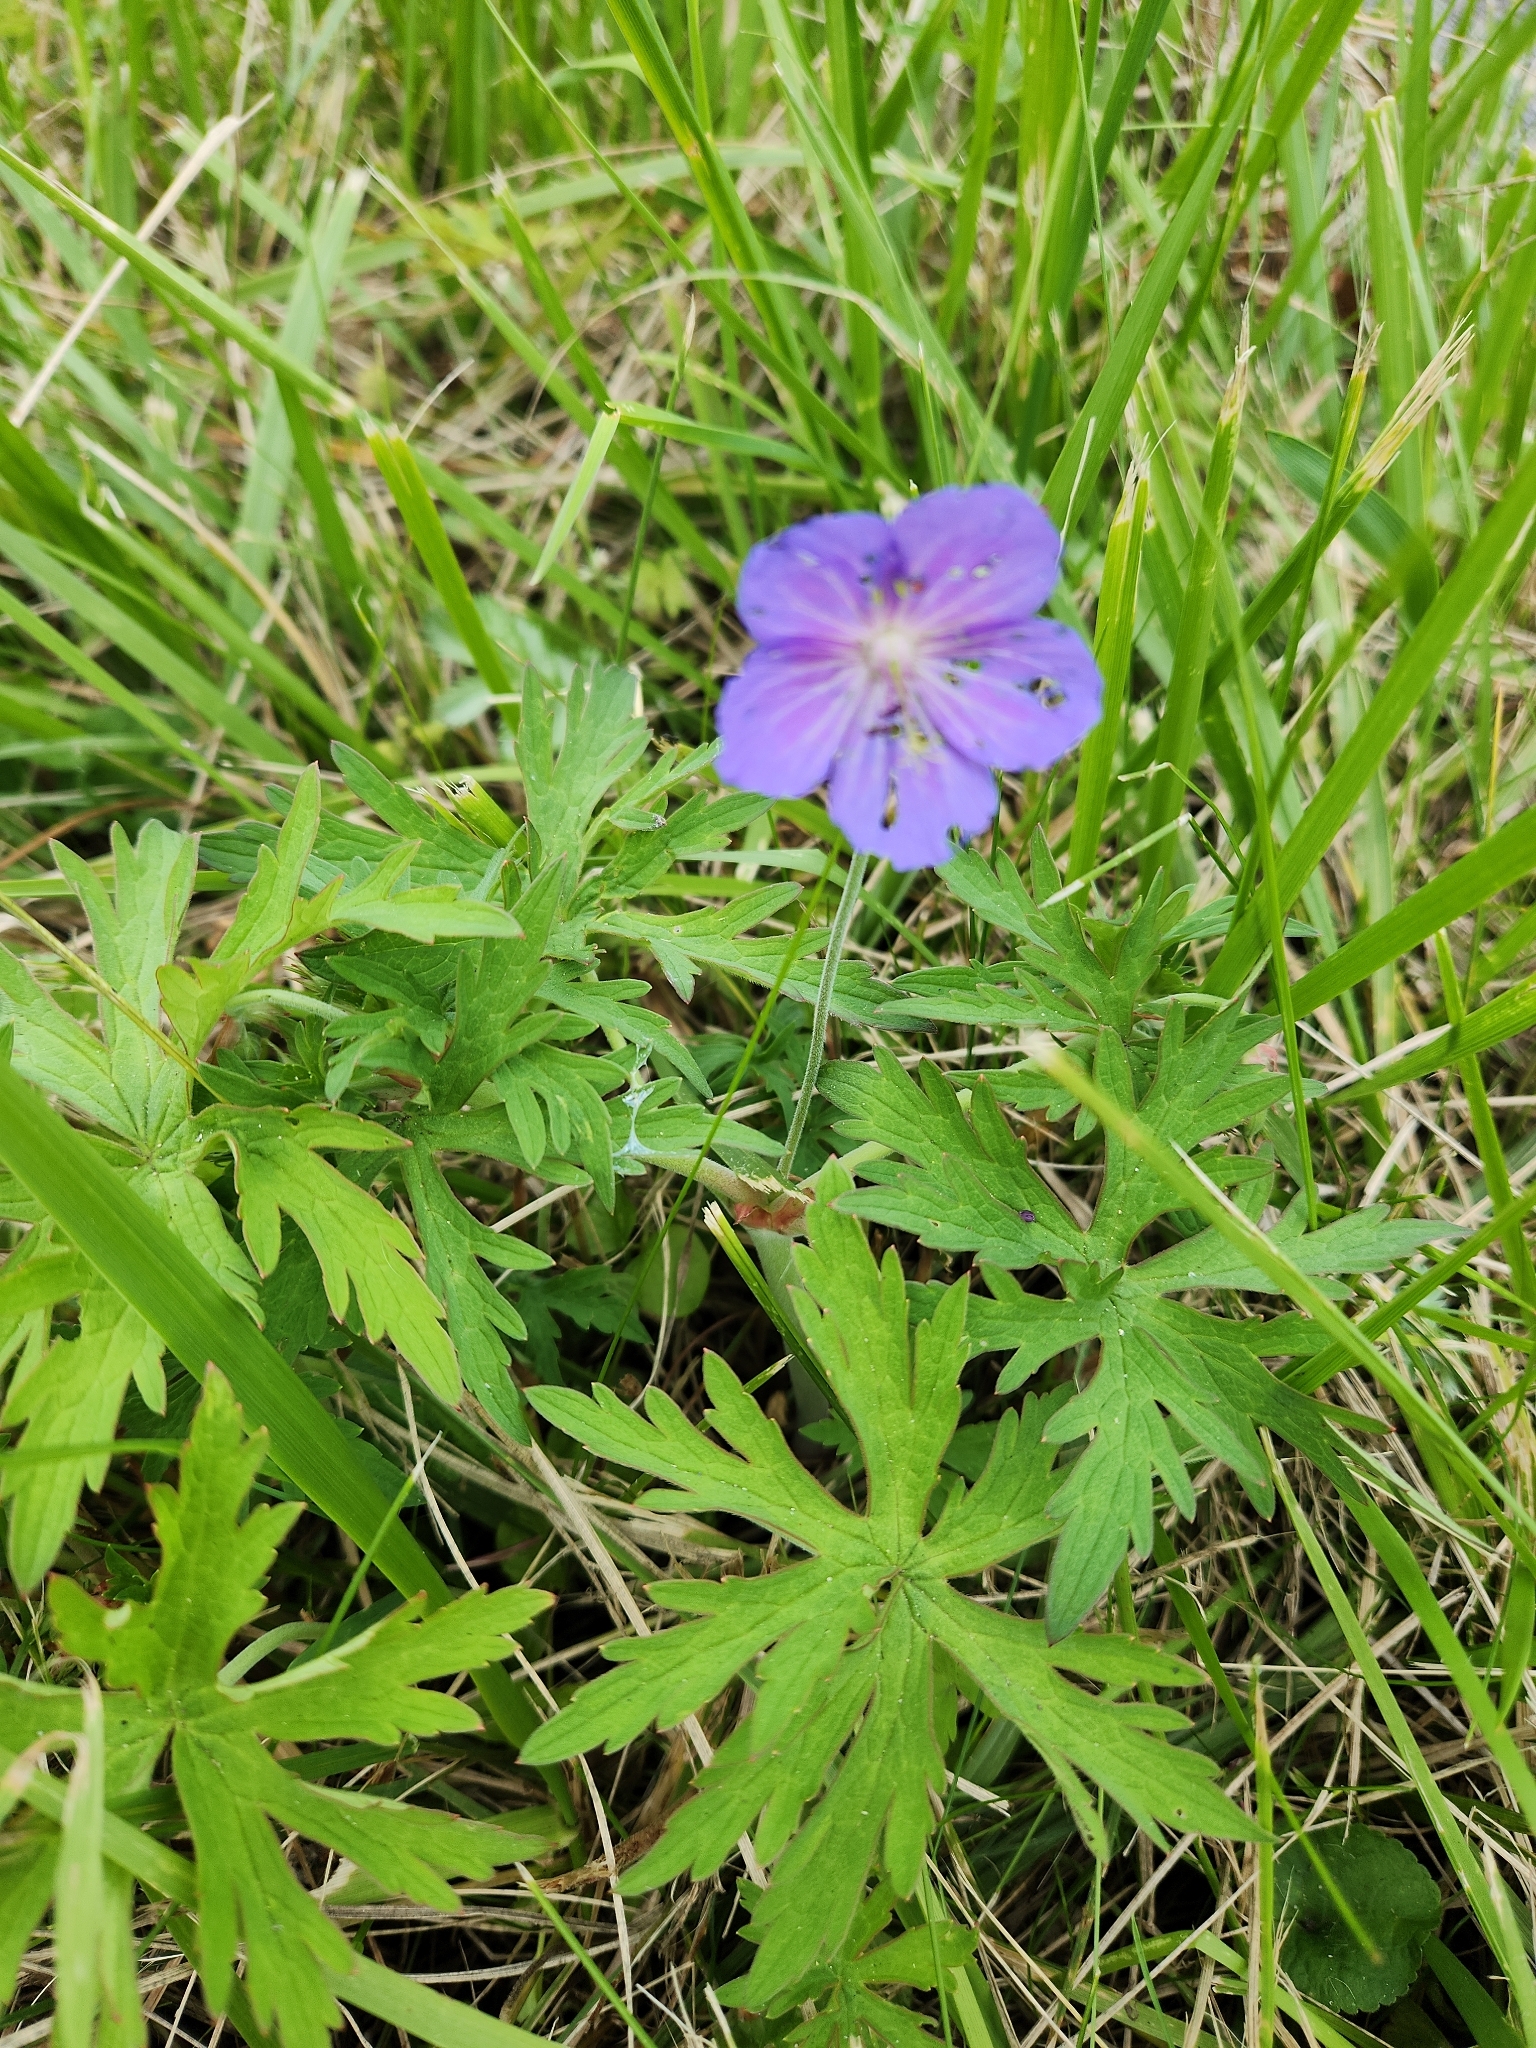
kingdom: Plantae
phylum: Tracheophyta
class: Magnoliopsida
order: Geraniales
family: Geraniaceae
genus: Geranium
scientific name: Geranium pratense
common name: Meadow crane's-bill
